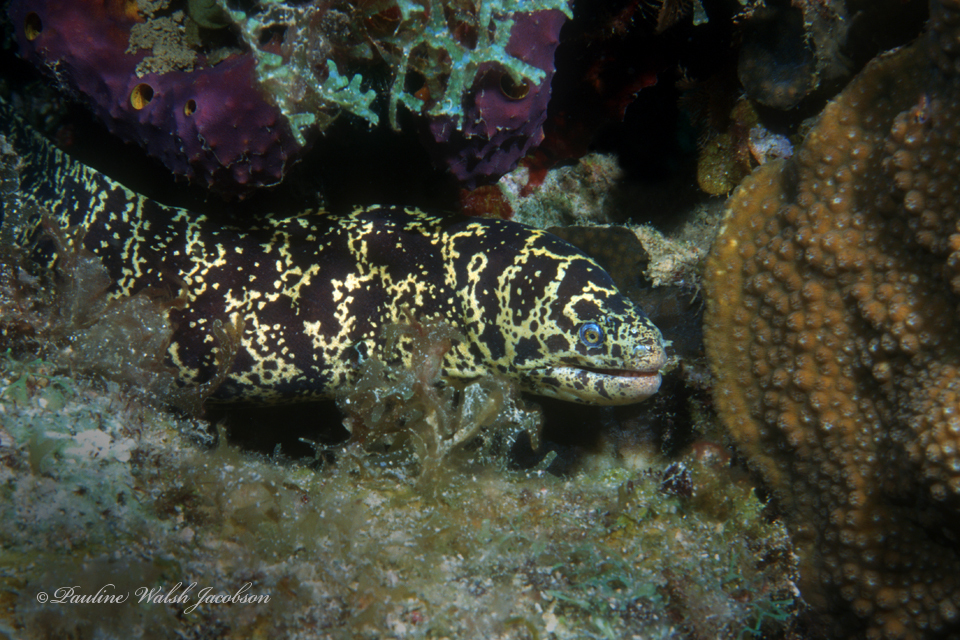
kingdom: Animalia
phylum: Chordata
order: Anguilliformes
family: Muraenidae
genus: Echidna
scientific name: Echidna catenata
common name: Chain moray
